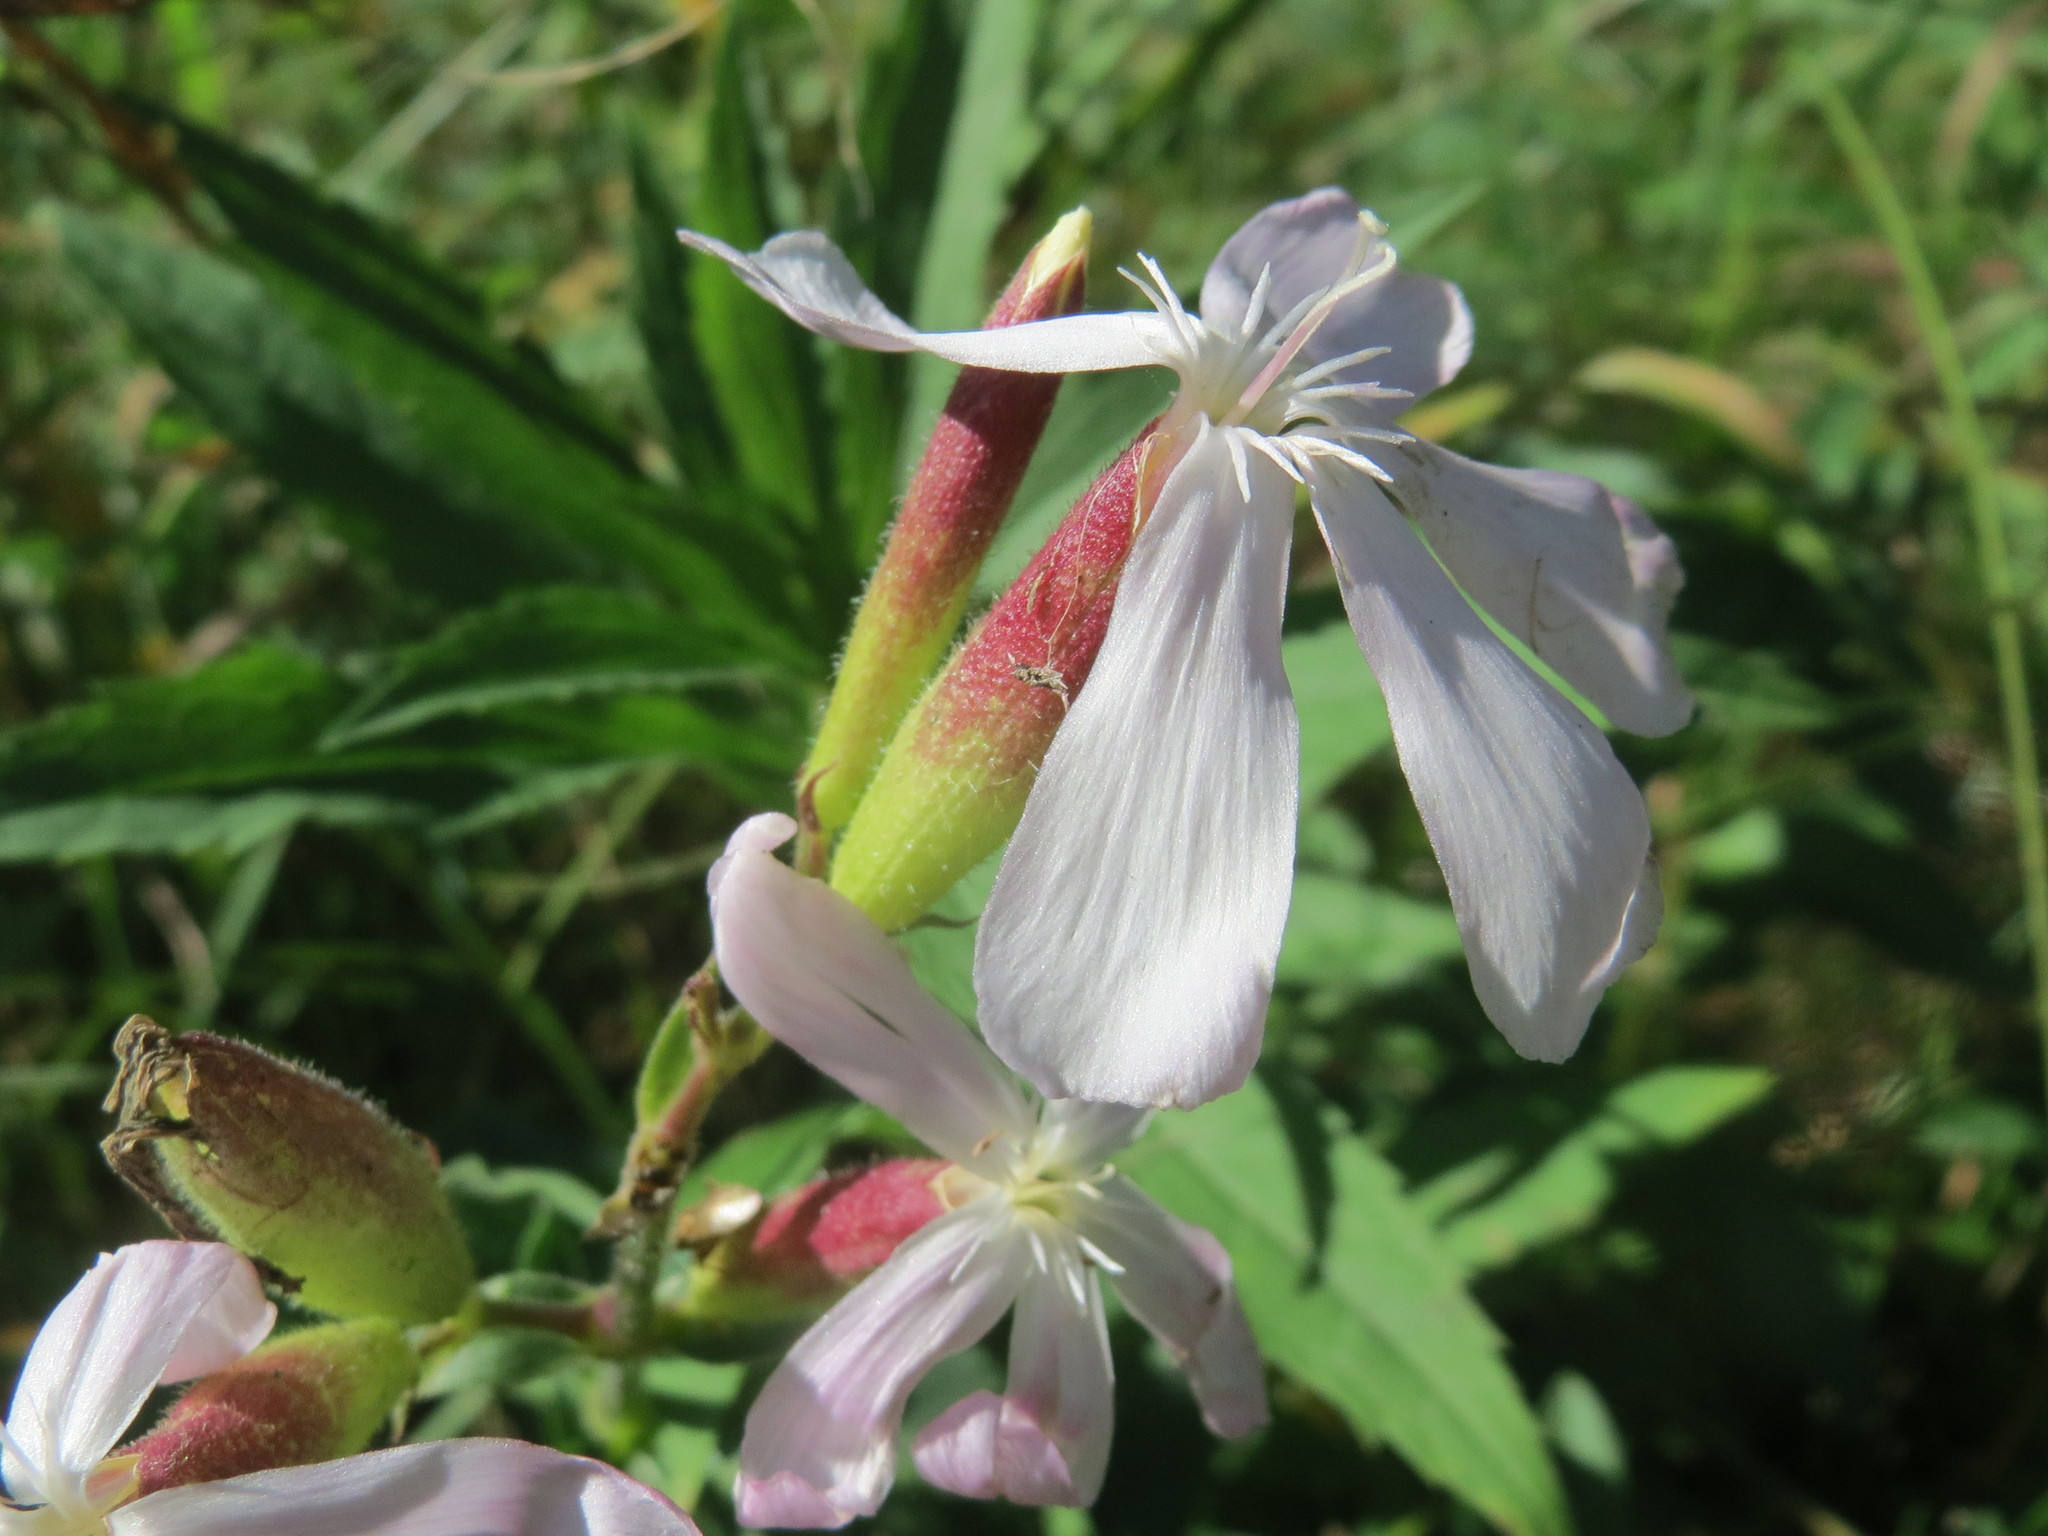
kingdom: Plantae
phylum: Tracheophyta
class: Magnoliopsida
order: Caryophyllales
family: Caryophyllaceae
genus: Saponaria
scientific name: Saponaria officinalis
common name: Soapwort
